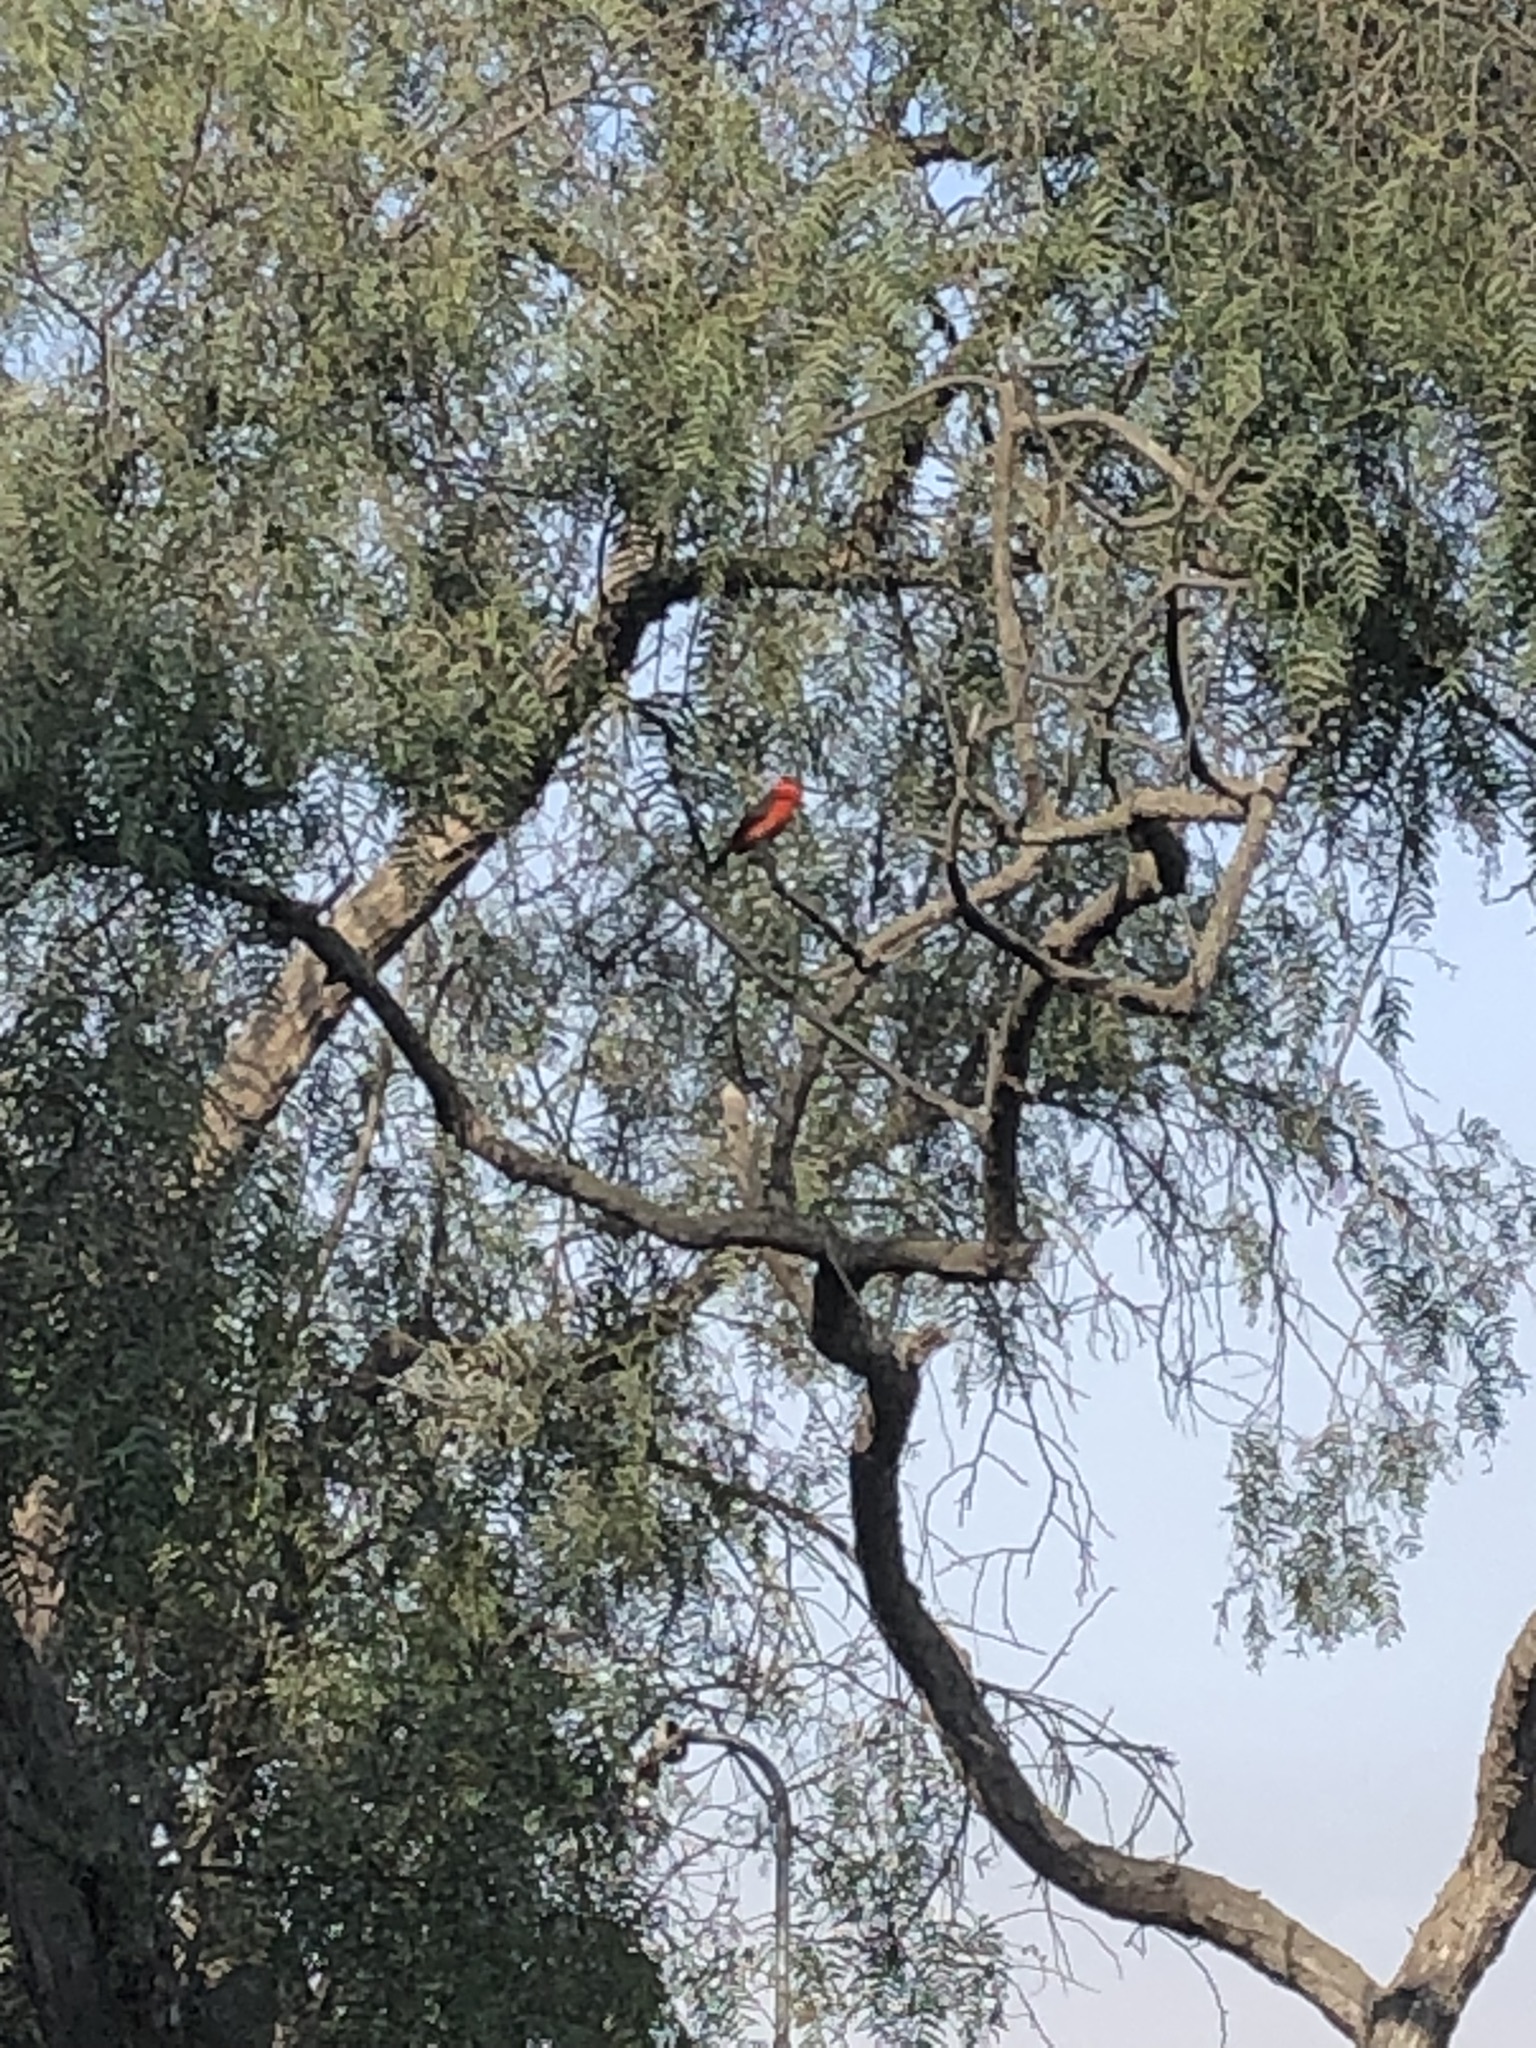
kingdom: Animalia
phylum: Chordata
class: Aves
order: Passeriformes
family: Tyrannidae
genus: Pyrocephalus
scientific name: Pyrocephalus rubinus
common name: Vermilion flycatcher
